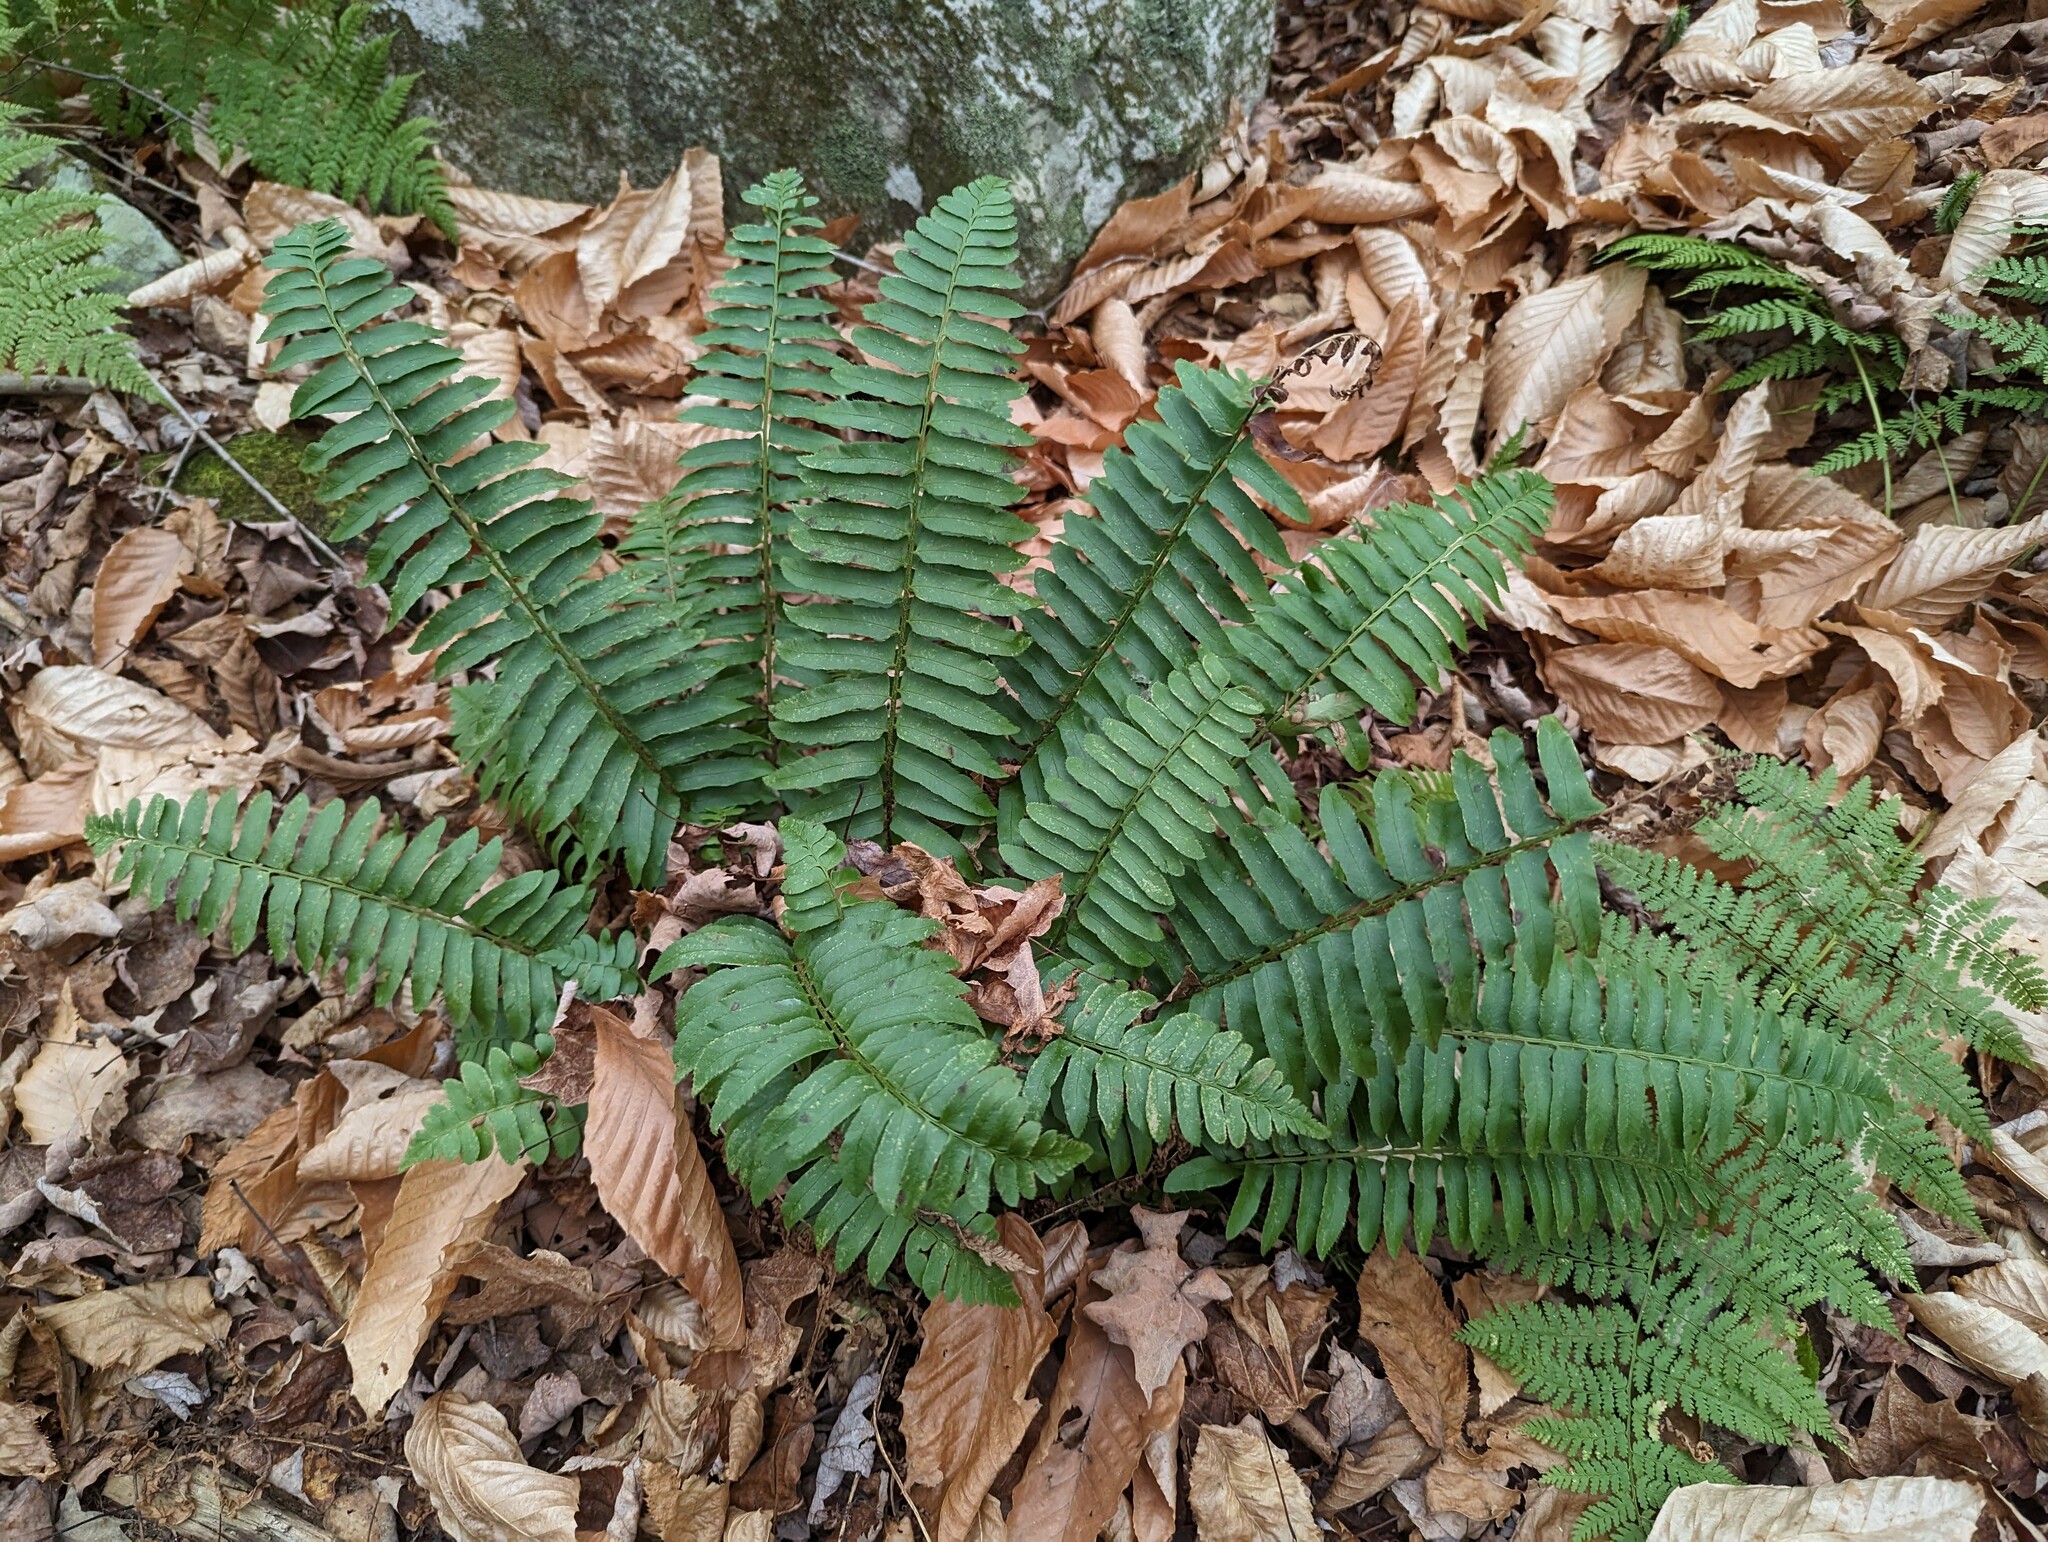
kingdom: Plantae
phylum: Tracheophyta
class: Polypodiopsida
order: Polypodiales
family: Dryopteridaceae
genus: Polystichum
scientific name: Polystichum acrostichoides
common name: Christmas fern
